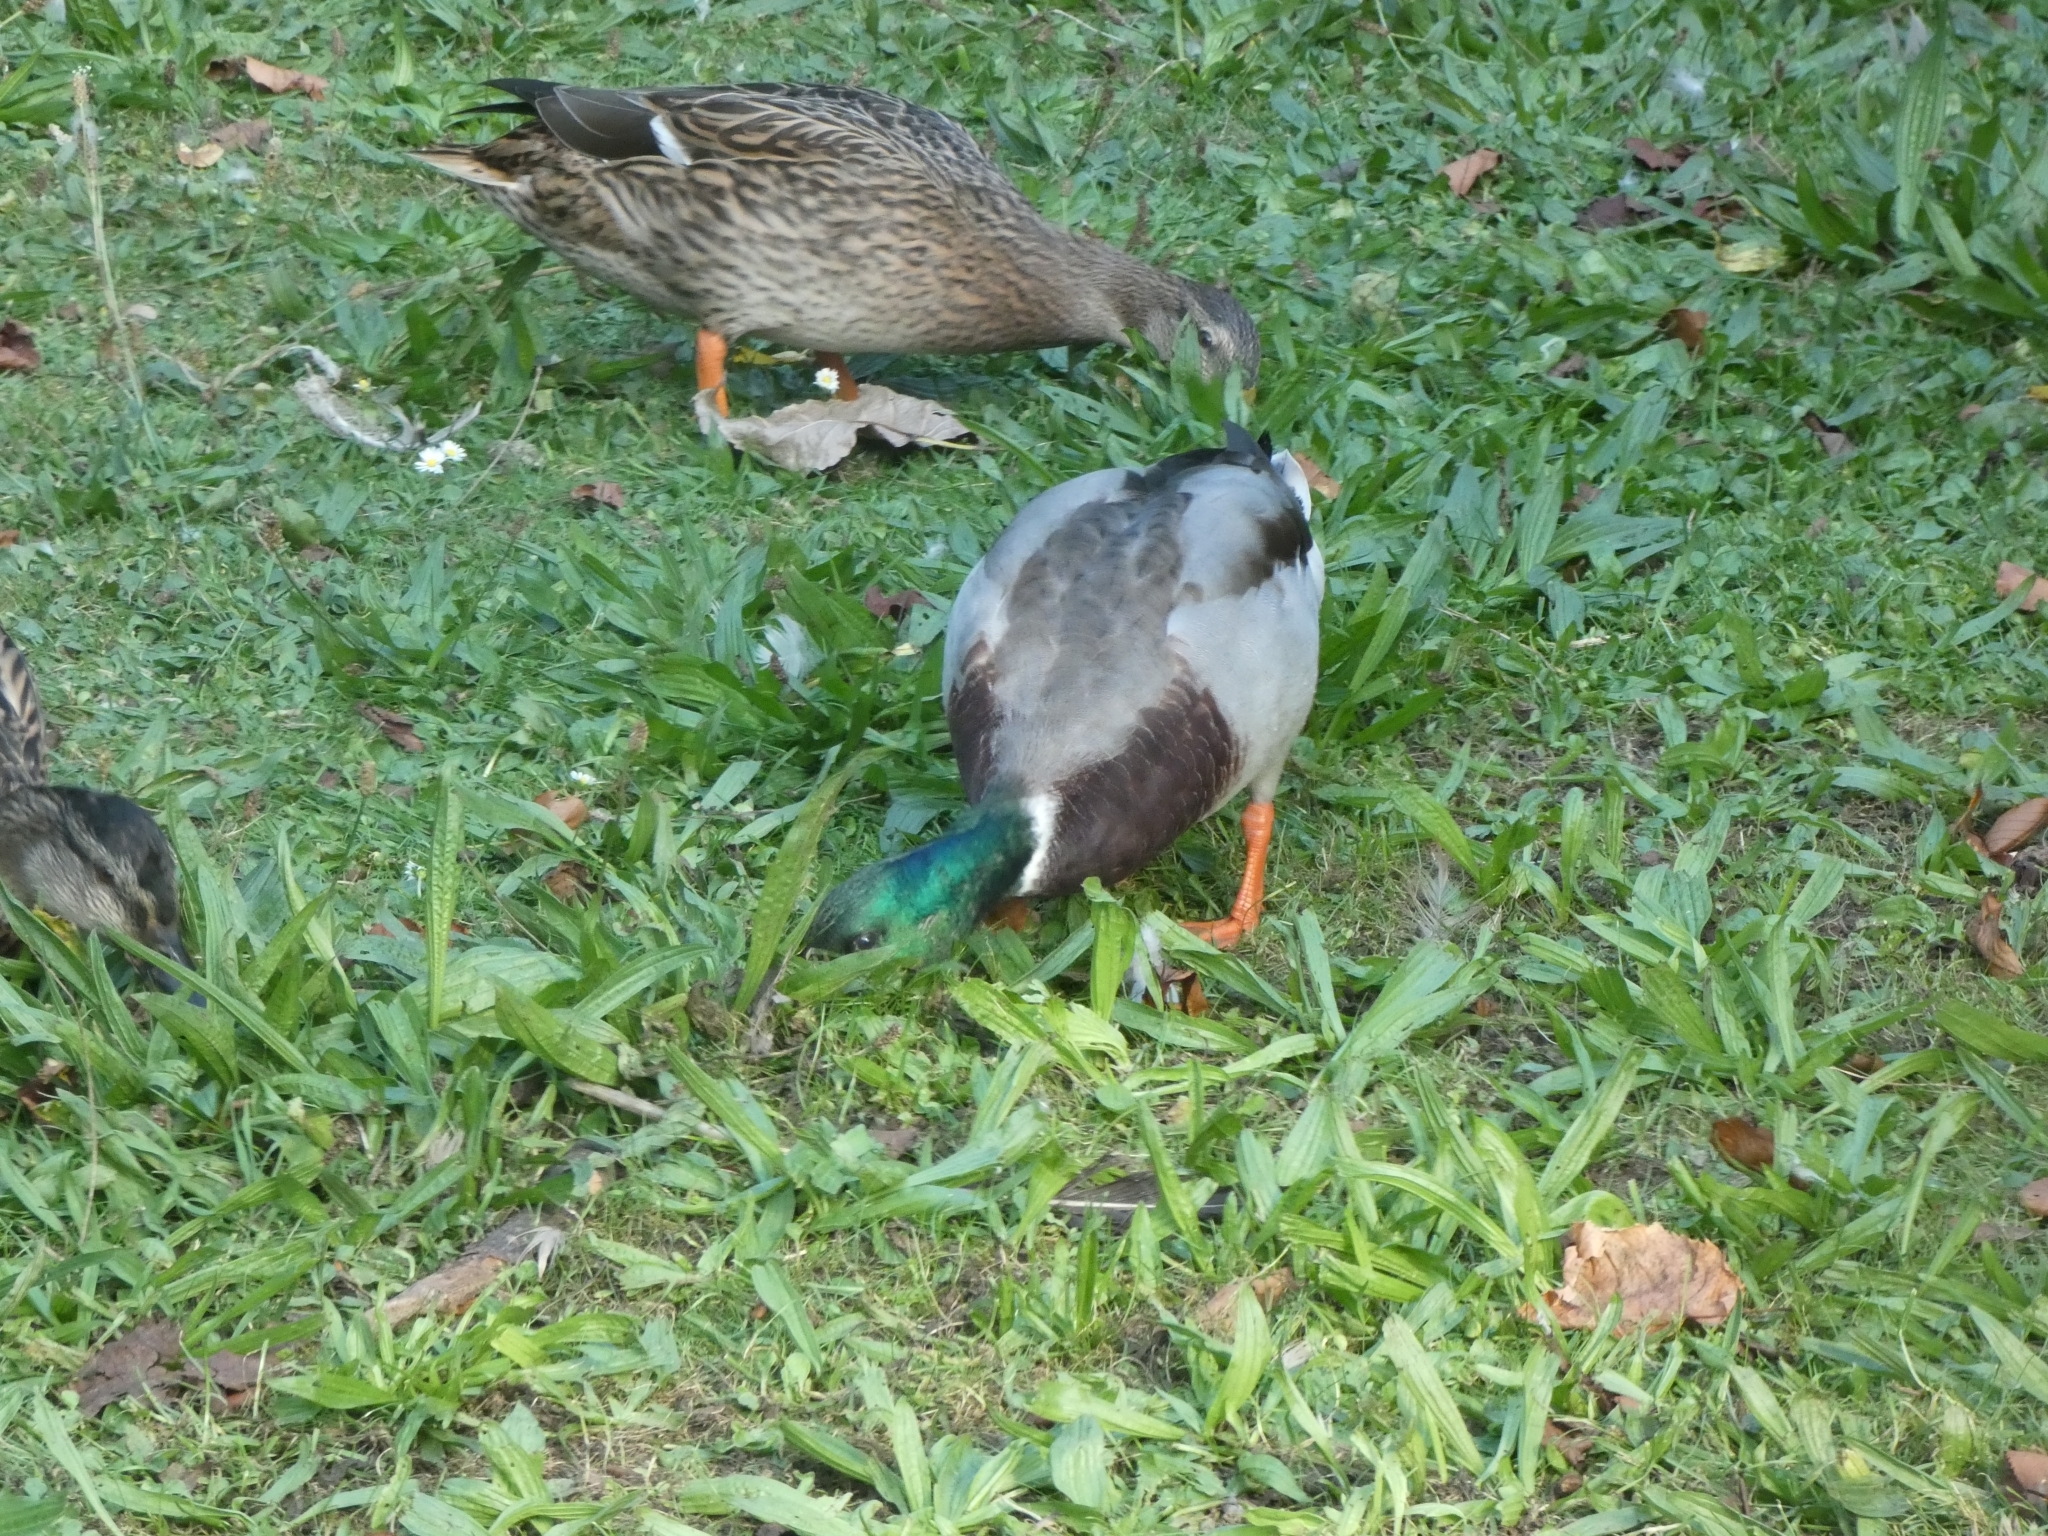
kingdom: Animalia
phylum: Chordata
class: Aves
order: Anseriformes
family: Anatidae
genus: Anas
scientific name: Anas platyrhynchos
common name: Mallard
